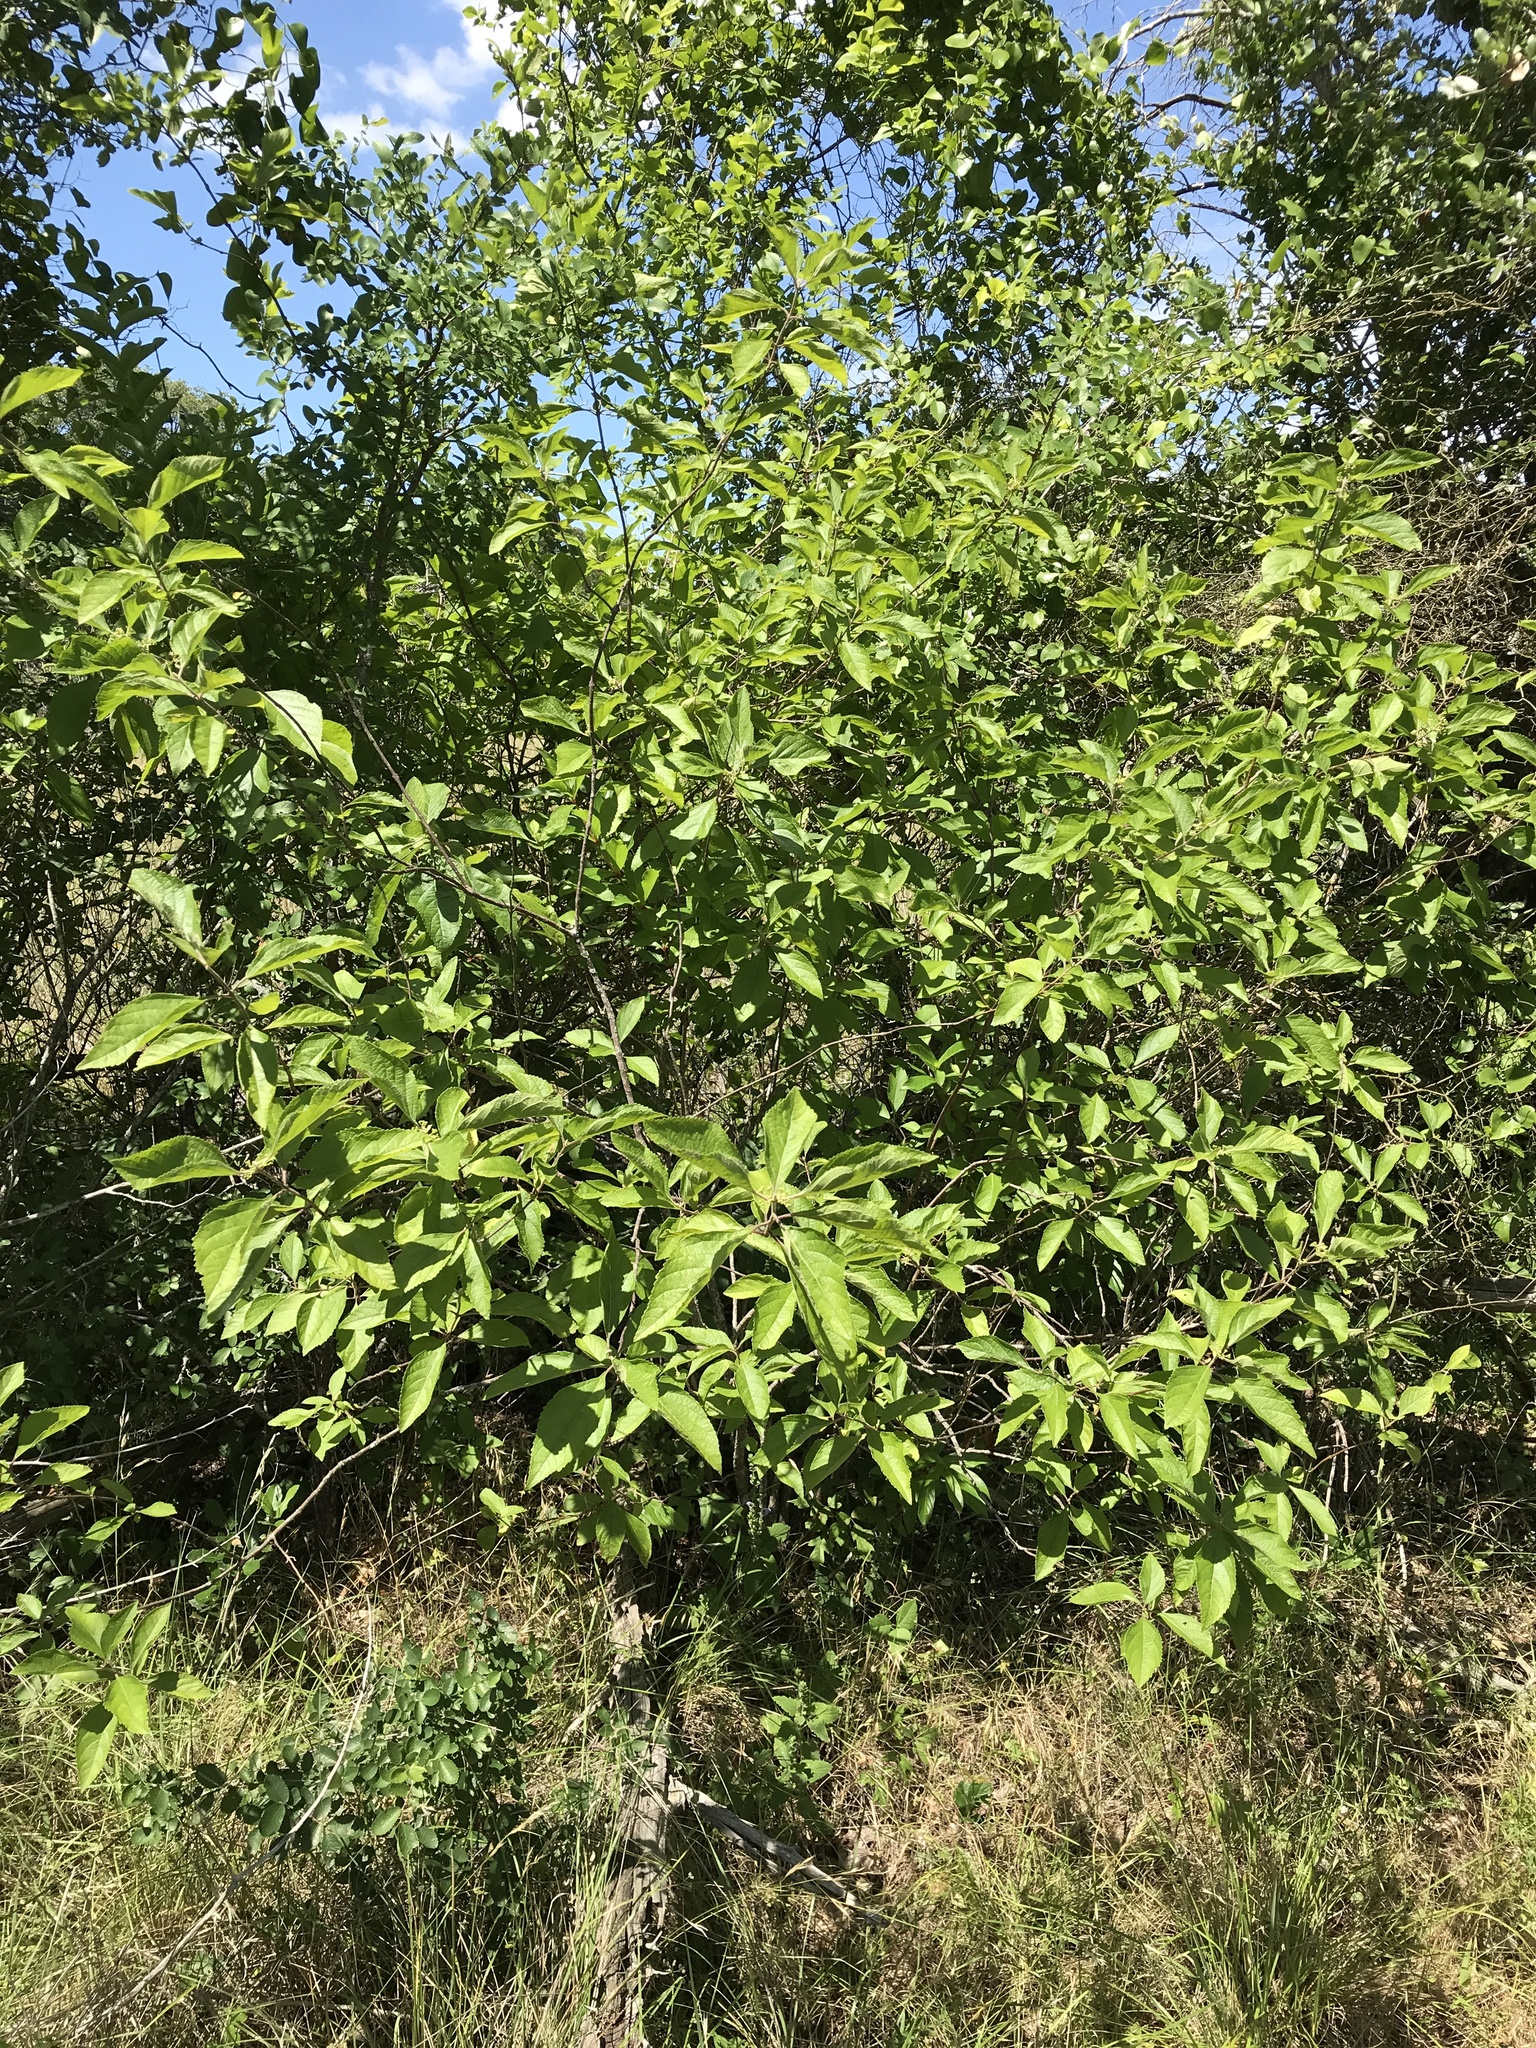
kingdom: Plantae
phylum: Tracheophyta
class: Magnoliopsida
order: Lamiales
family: Lamiaceae
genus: Callicarpa
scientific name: Callicarpa americana
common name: American beautyberry
